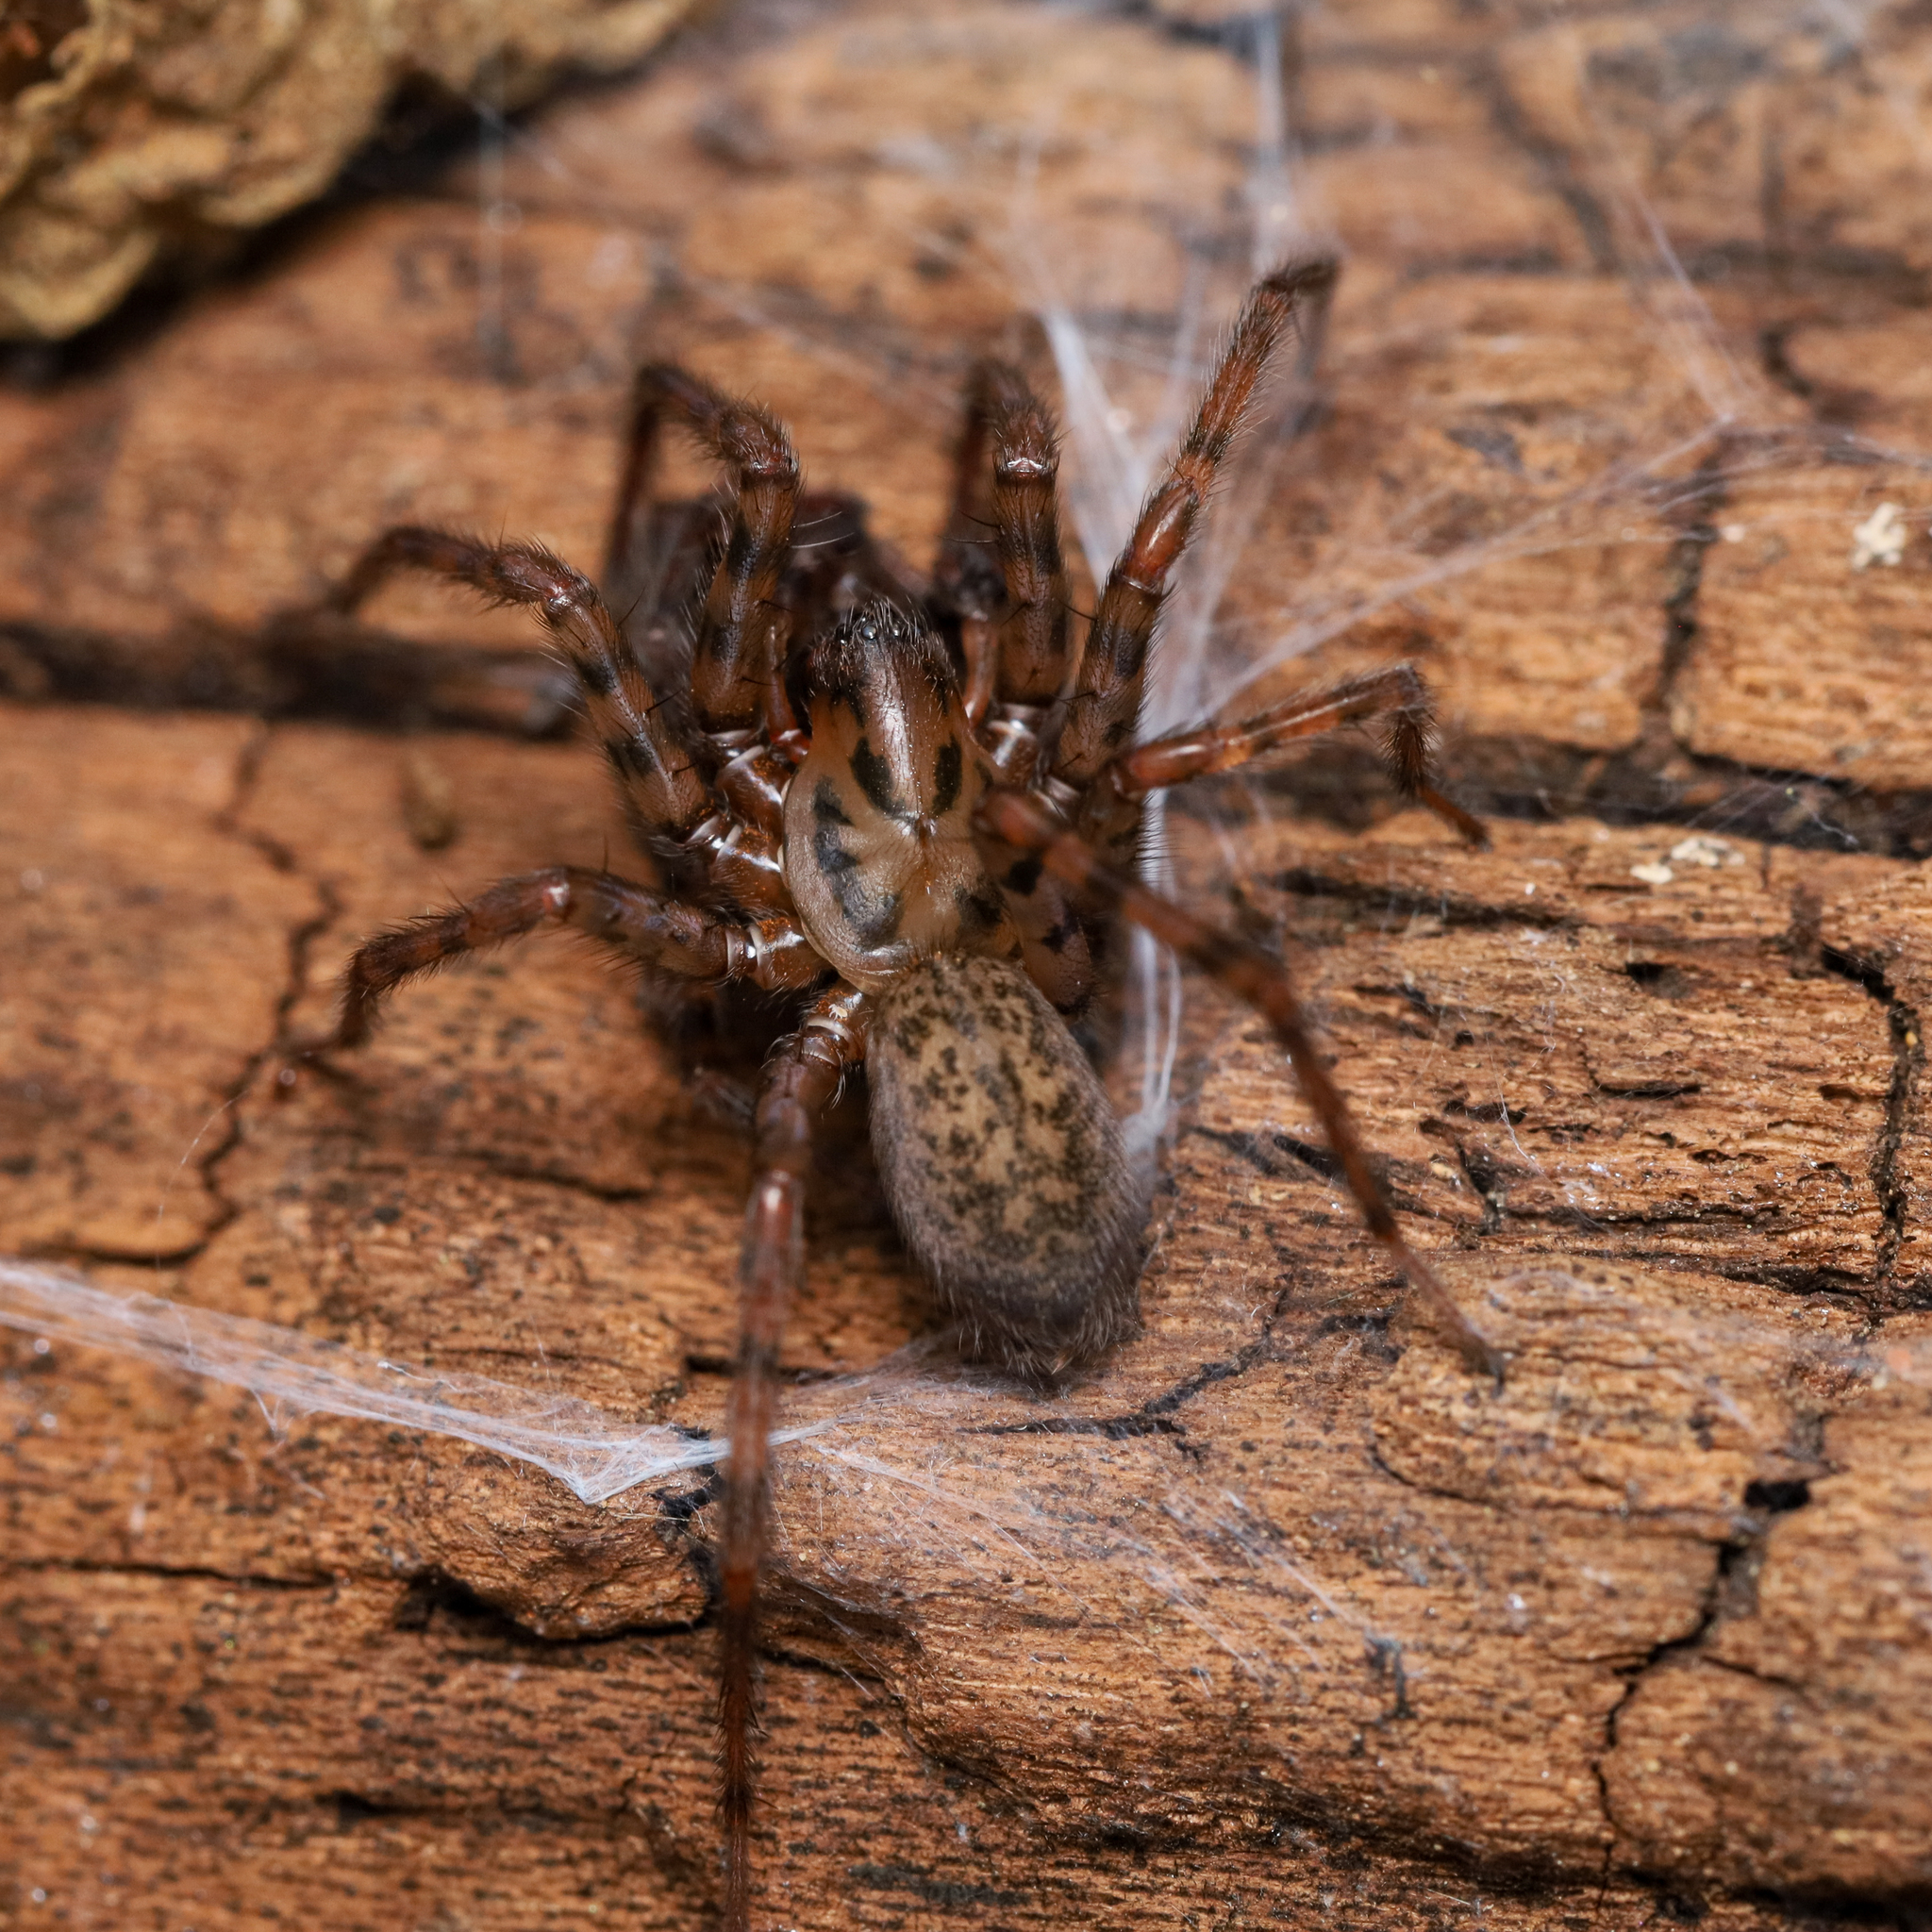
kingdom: Animalia
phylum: Arthropoda
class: Arachnida
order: Araneae
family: Agelenidae
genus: Coras
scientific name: Coras
